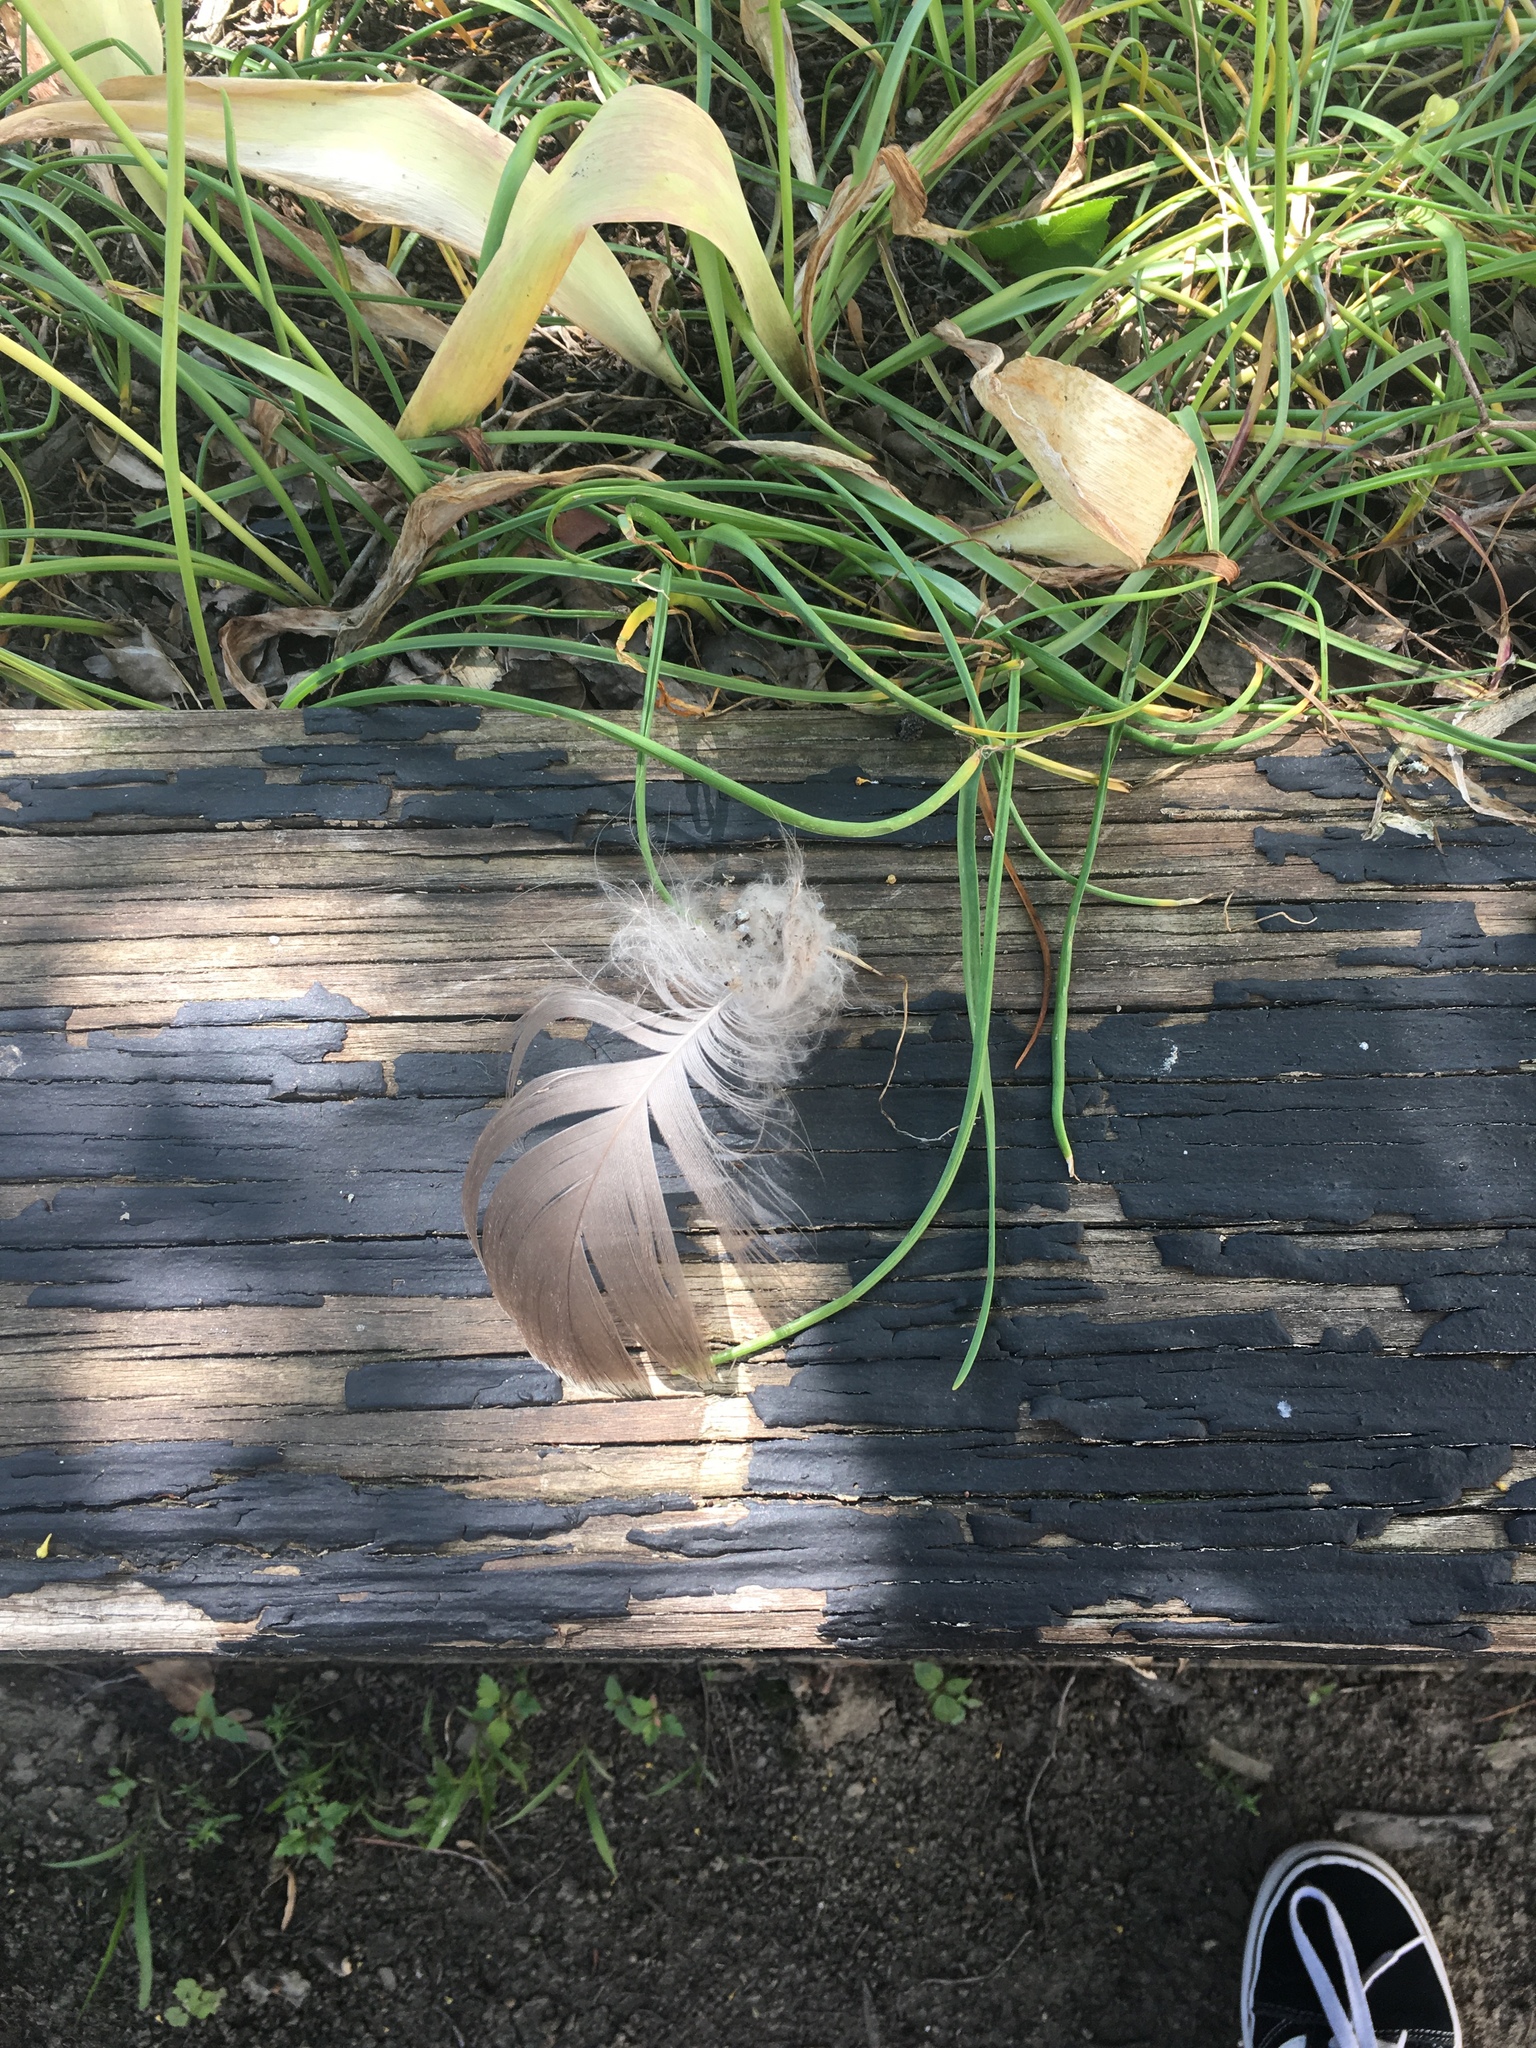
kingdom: Animalia
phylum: Chordata
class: Aves
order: Anseriformes
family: Anatidae
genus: Branta
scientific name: Branta canadensis
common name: Canada goose
